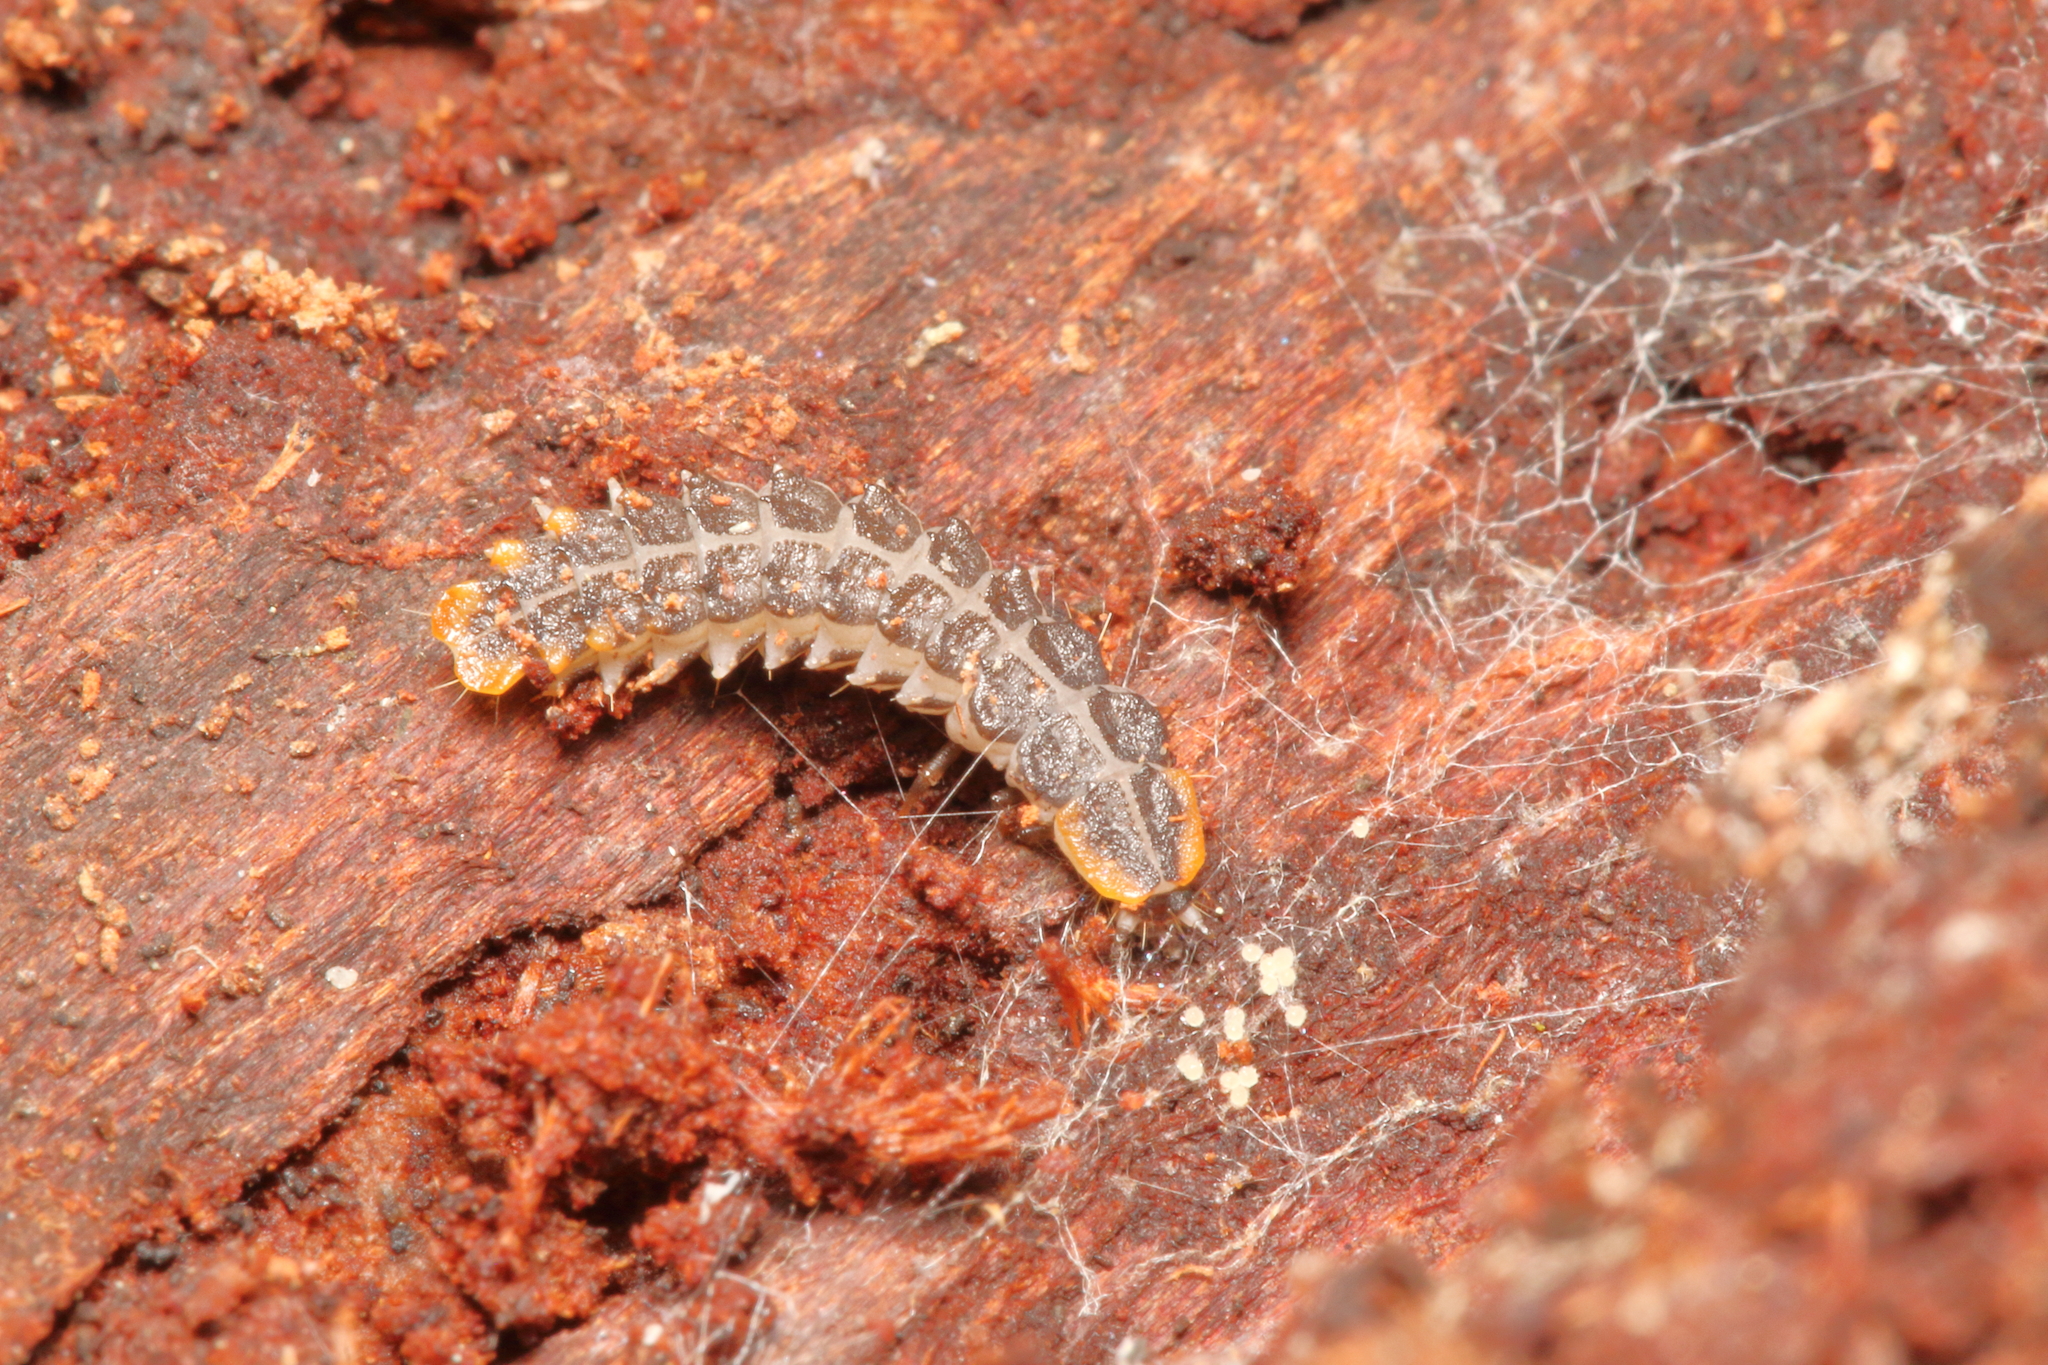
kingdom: Animalia
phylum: Arthropoda
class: Insecta
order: Coleoptera
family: Lycidae
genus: Porrostoma
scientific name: Porrostoma rufipenne
